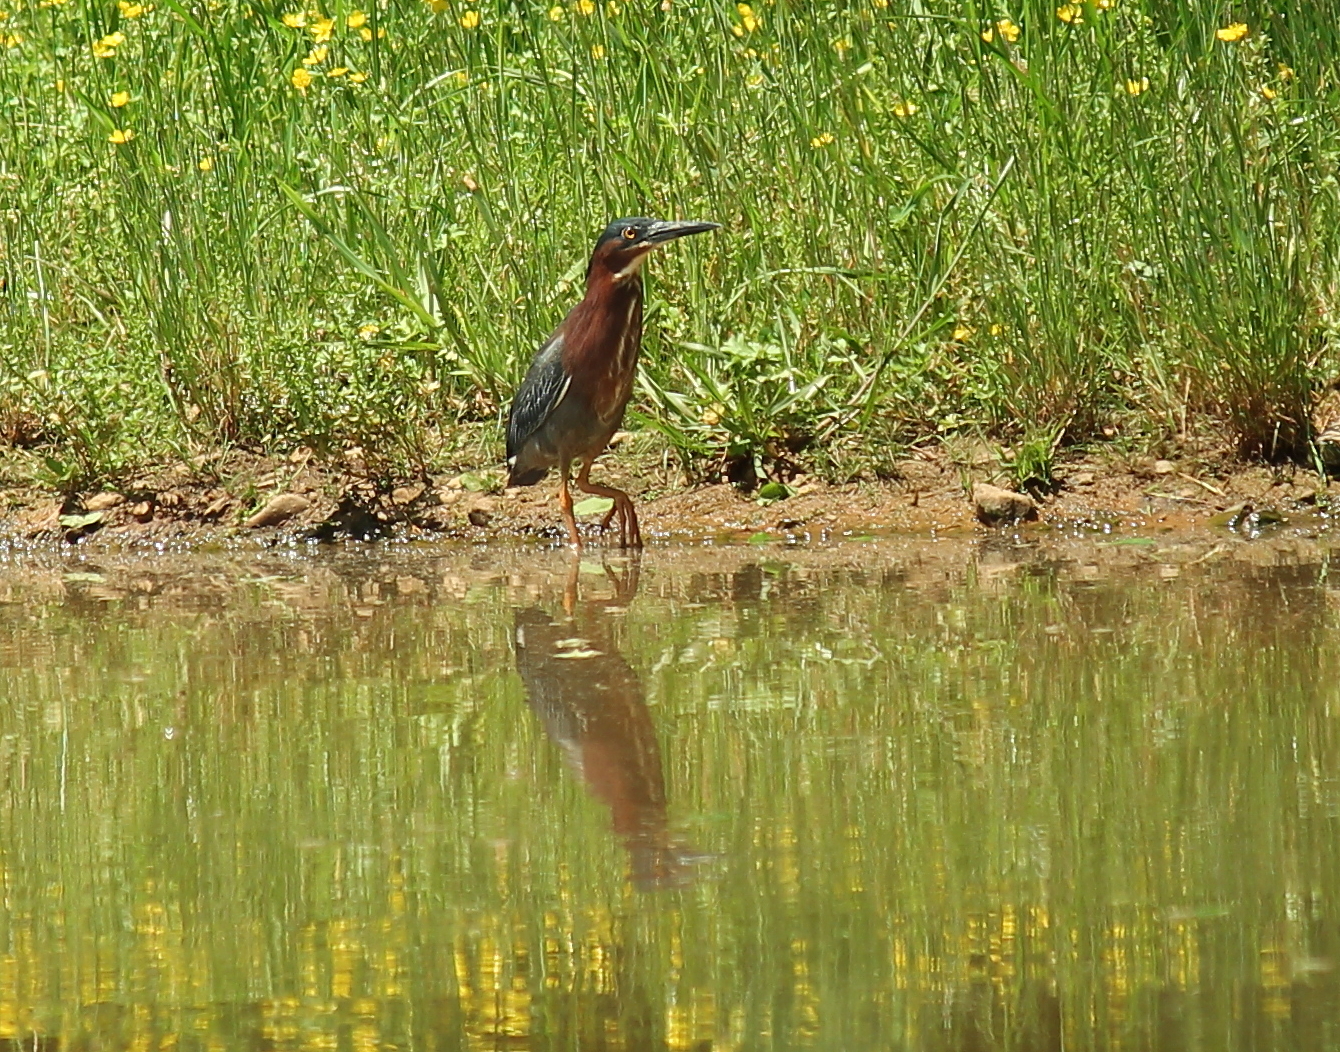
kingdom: Animalia
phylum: Chordata
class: Aves
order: Pelecaniformes
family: Ardeidae
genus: Butorides
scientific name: Butorides virescens
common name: Green heron
